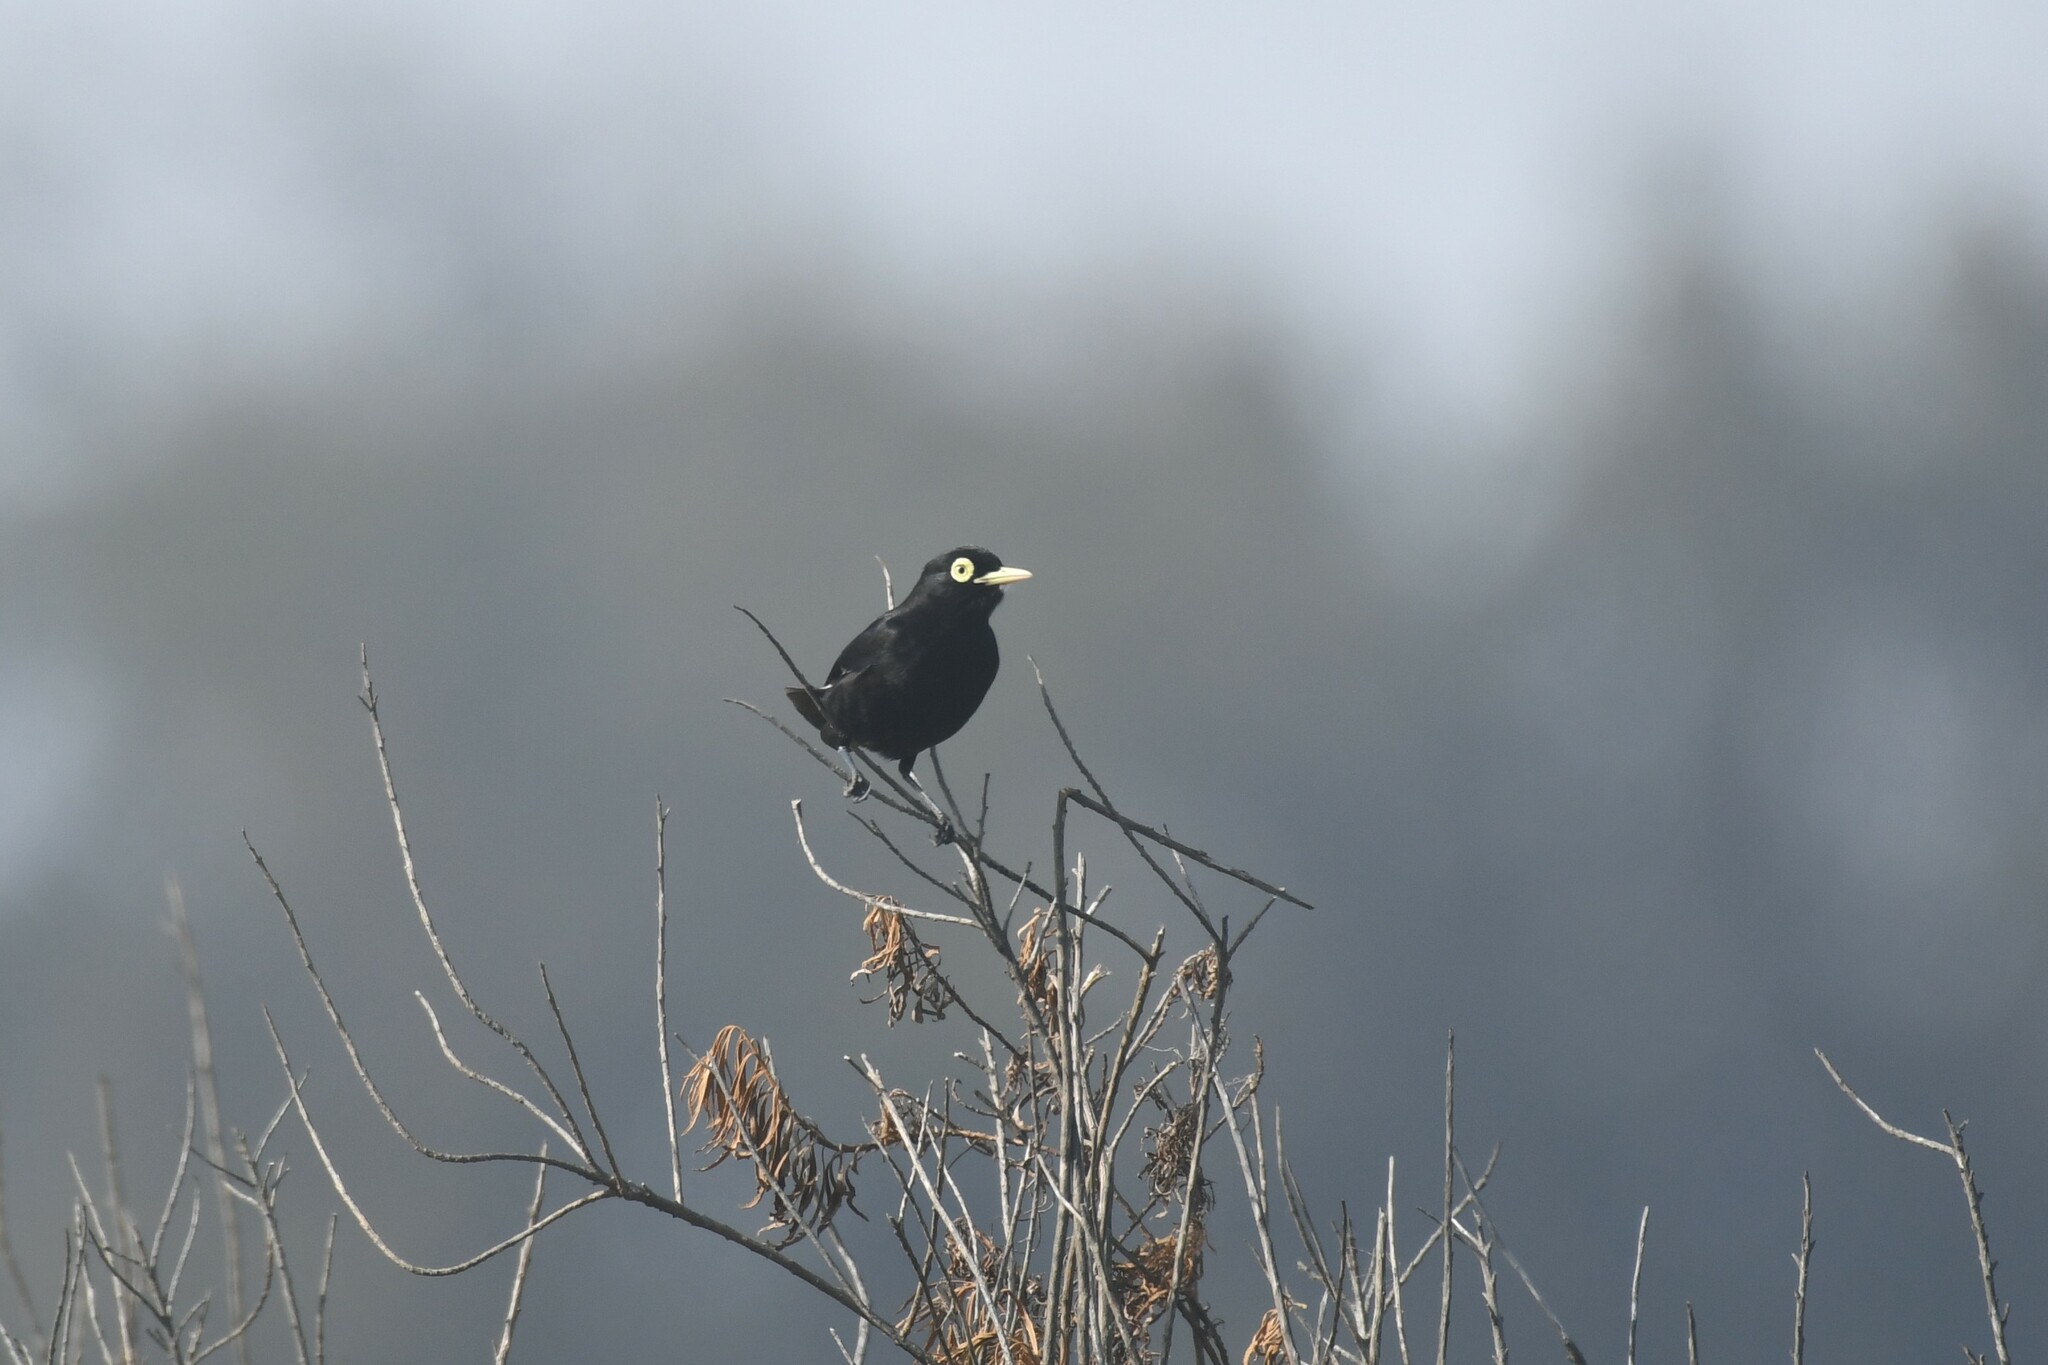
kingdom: Animalia
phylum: Chordata
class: Aves
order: Passeriformes
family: Tyrannidae
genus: Hymenops
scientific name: Hymenops perspicillatus
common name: Spectacled tyrant
